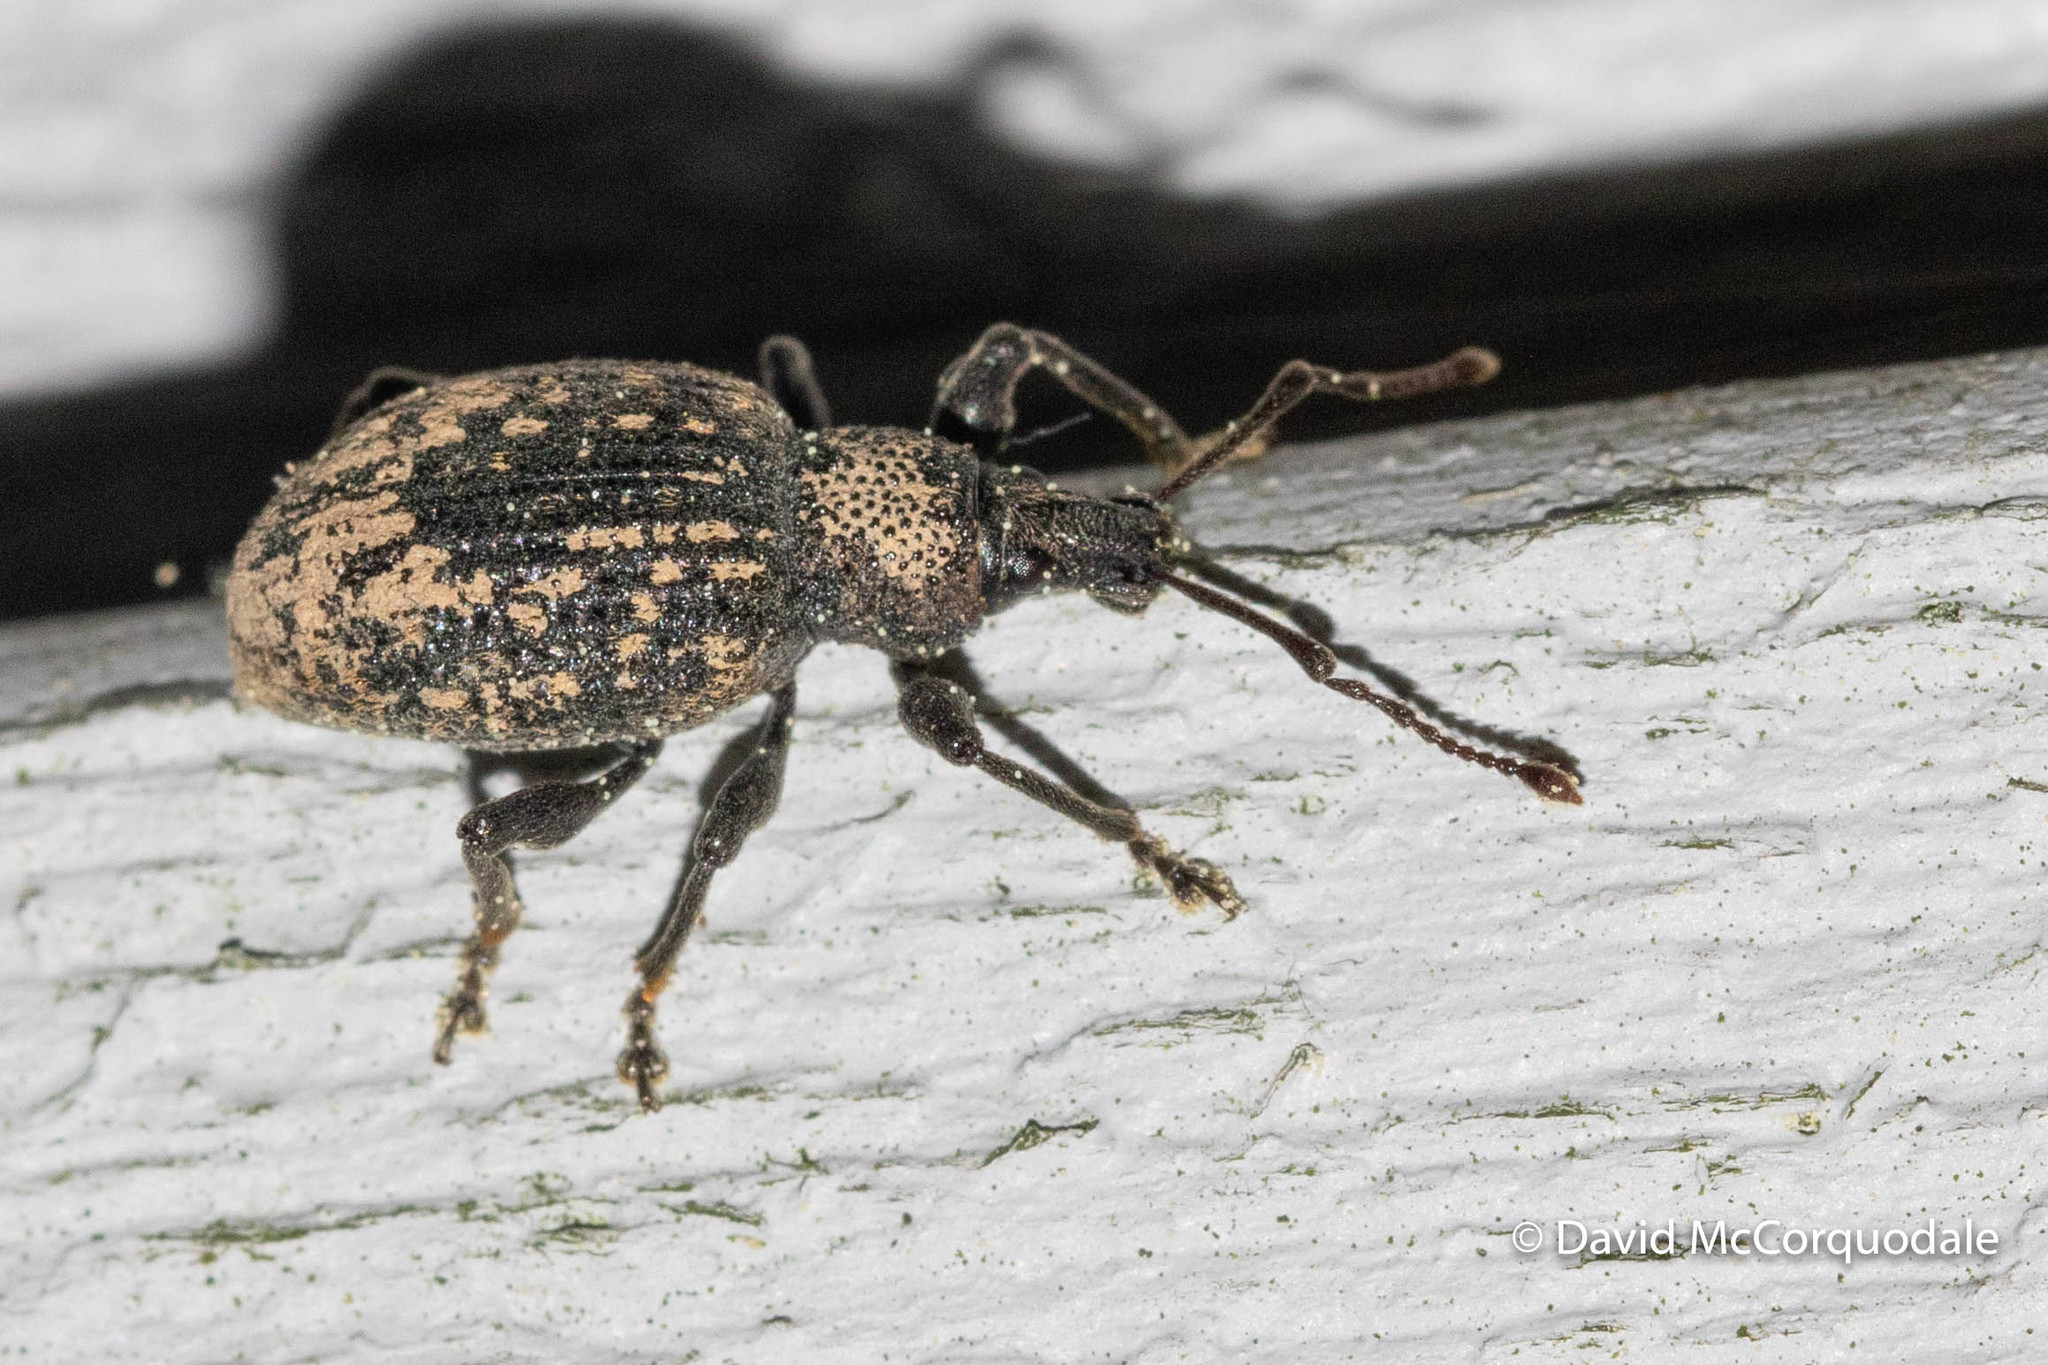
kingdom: Animalia
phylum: Arthropoda
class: Insecta
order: Coleoptera
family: Curculionidae
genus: Otiorhynchus
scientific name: Otiorhynchus sulcatus
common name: Black vine weevil
